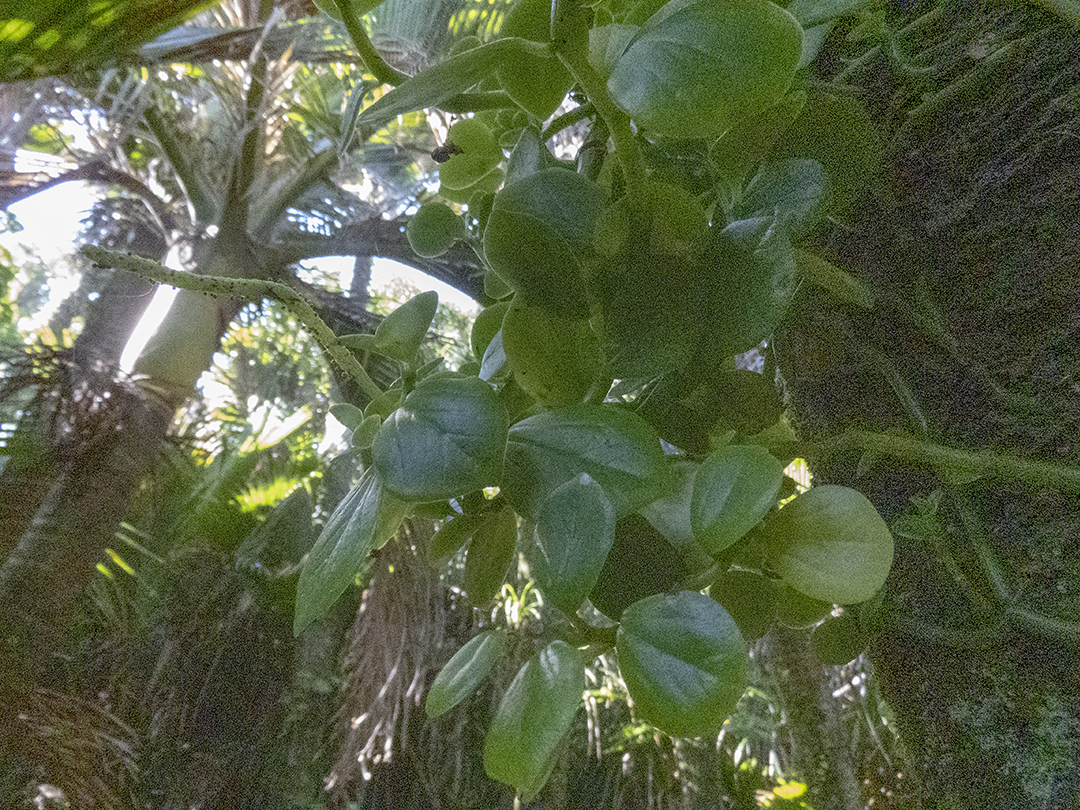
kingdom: Plantae
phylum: Tracheophyta
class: Magnoliopsida
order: Piperales
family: Piperaceae
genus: Peperomia
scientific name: Peperomia urvilleana
